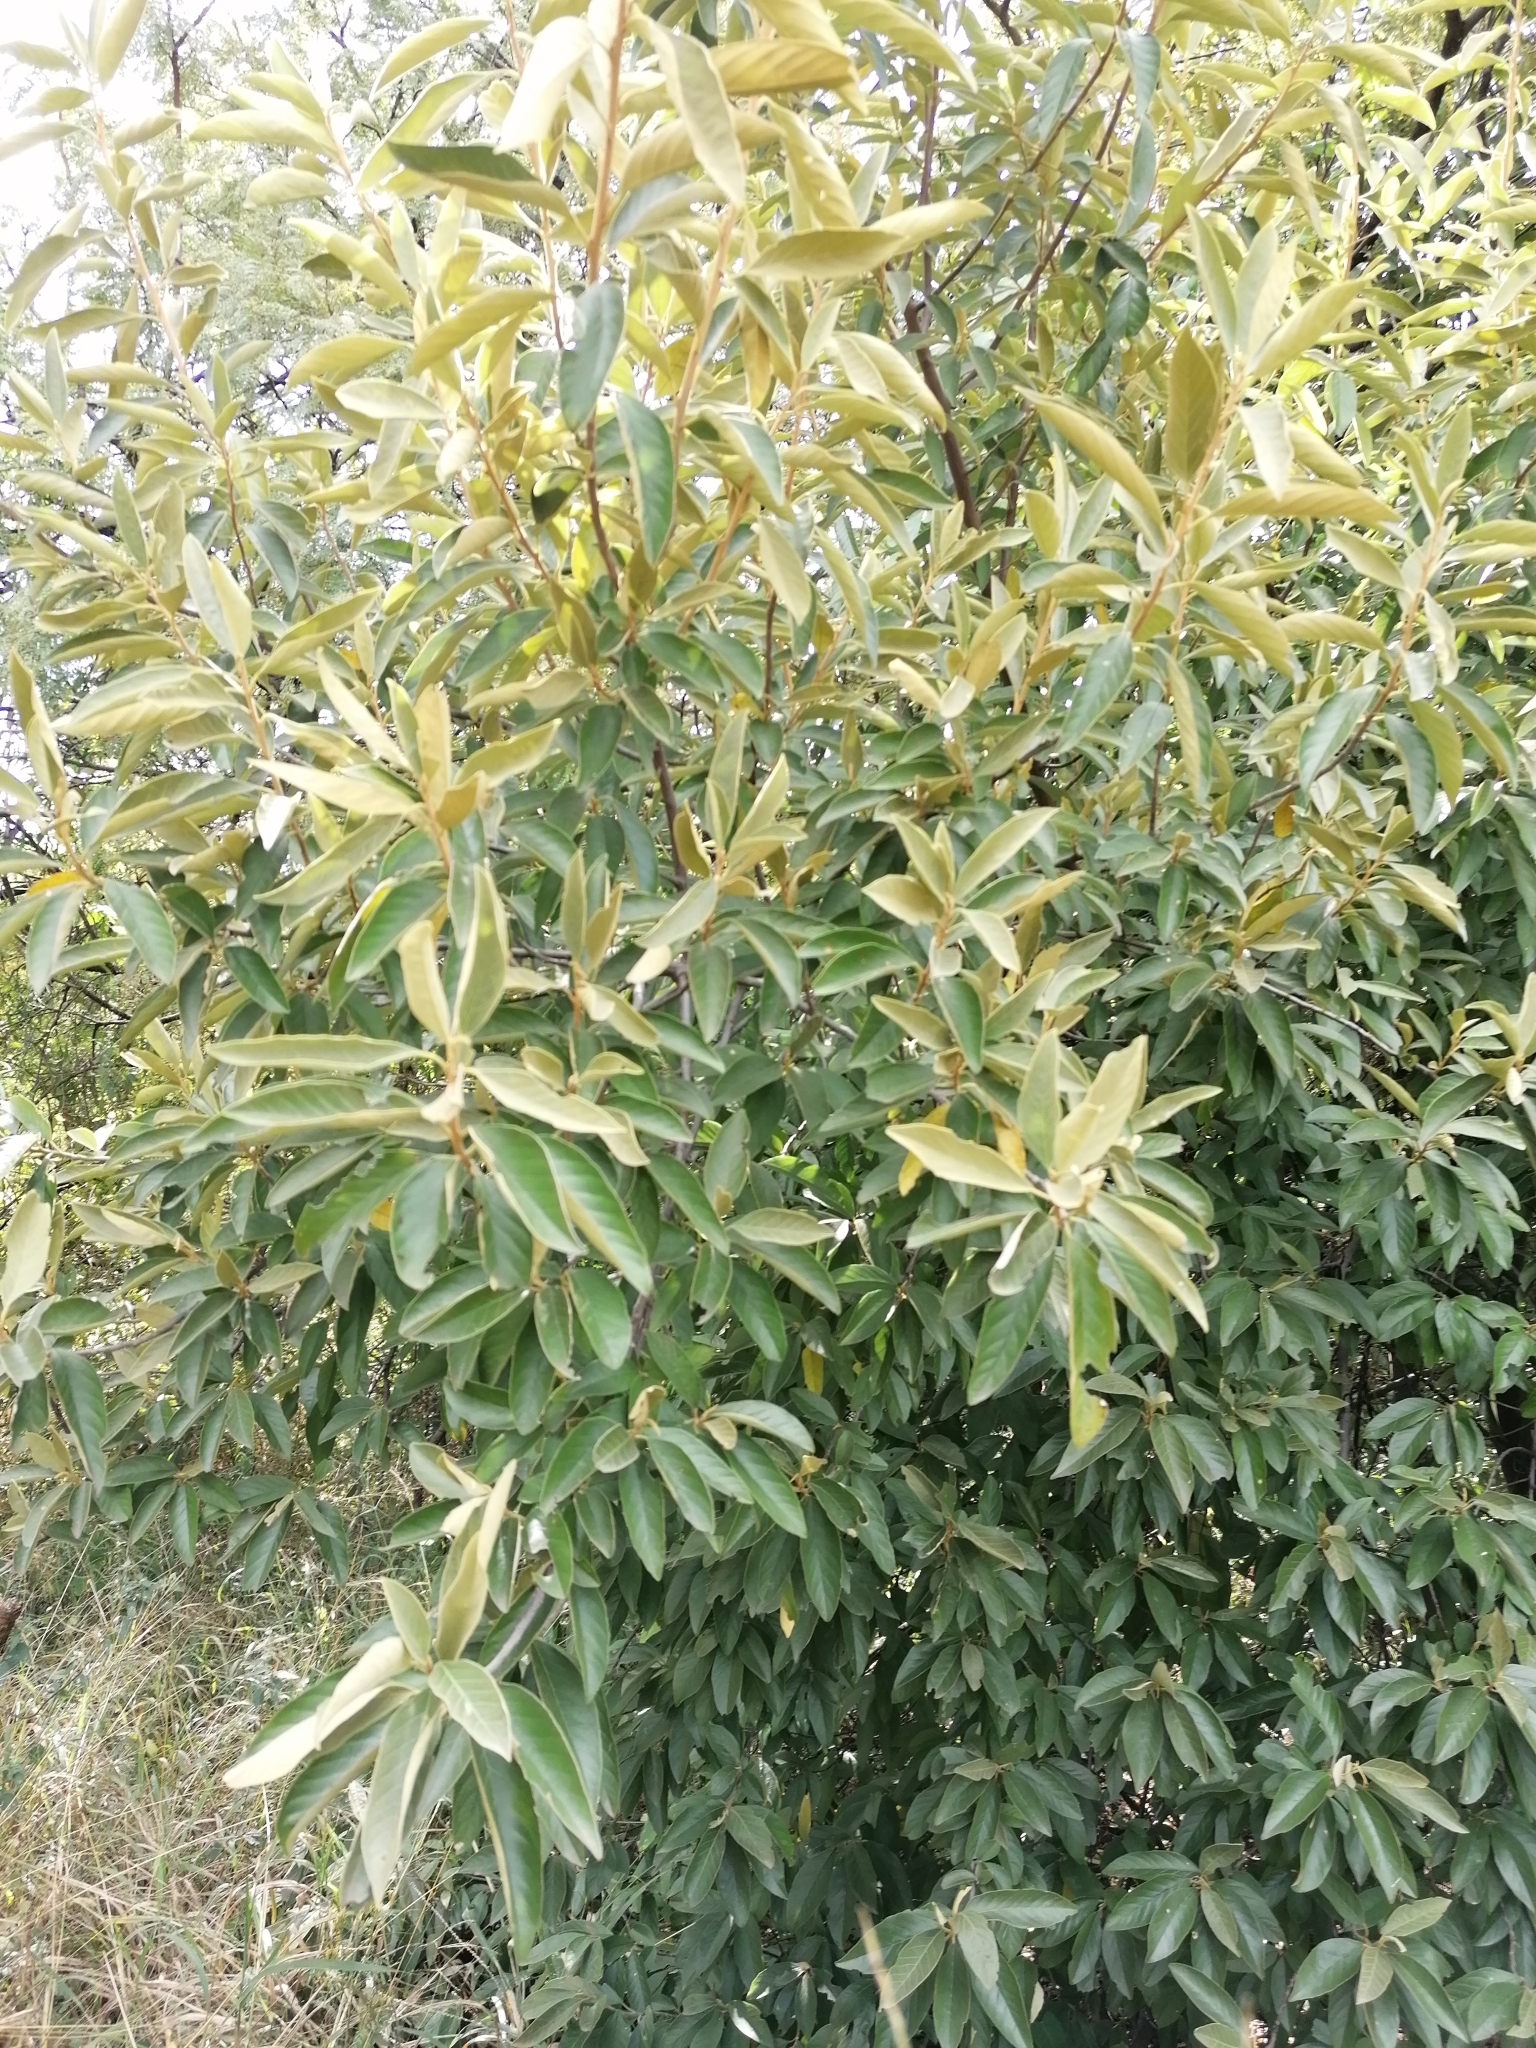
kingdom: Plantae
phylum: Tracheophyta
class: Magnoliopsida
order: Malpighiales
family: Achariaceae
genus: Kiggelaria
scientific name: Kiggelaria africana
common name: Wild peach
